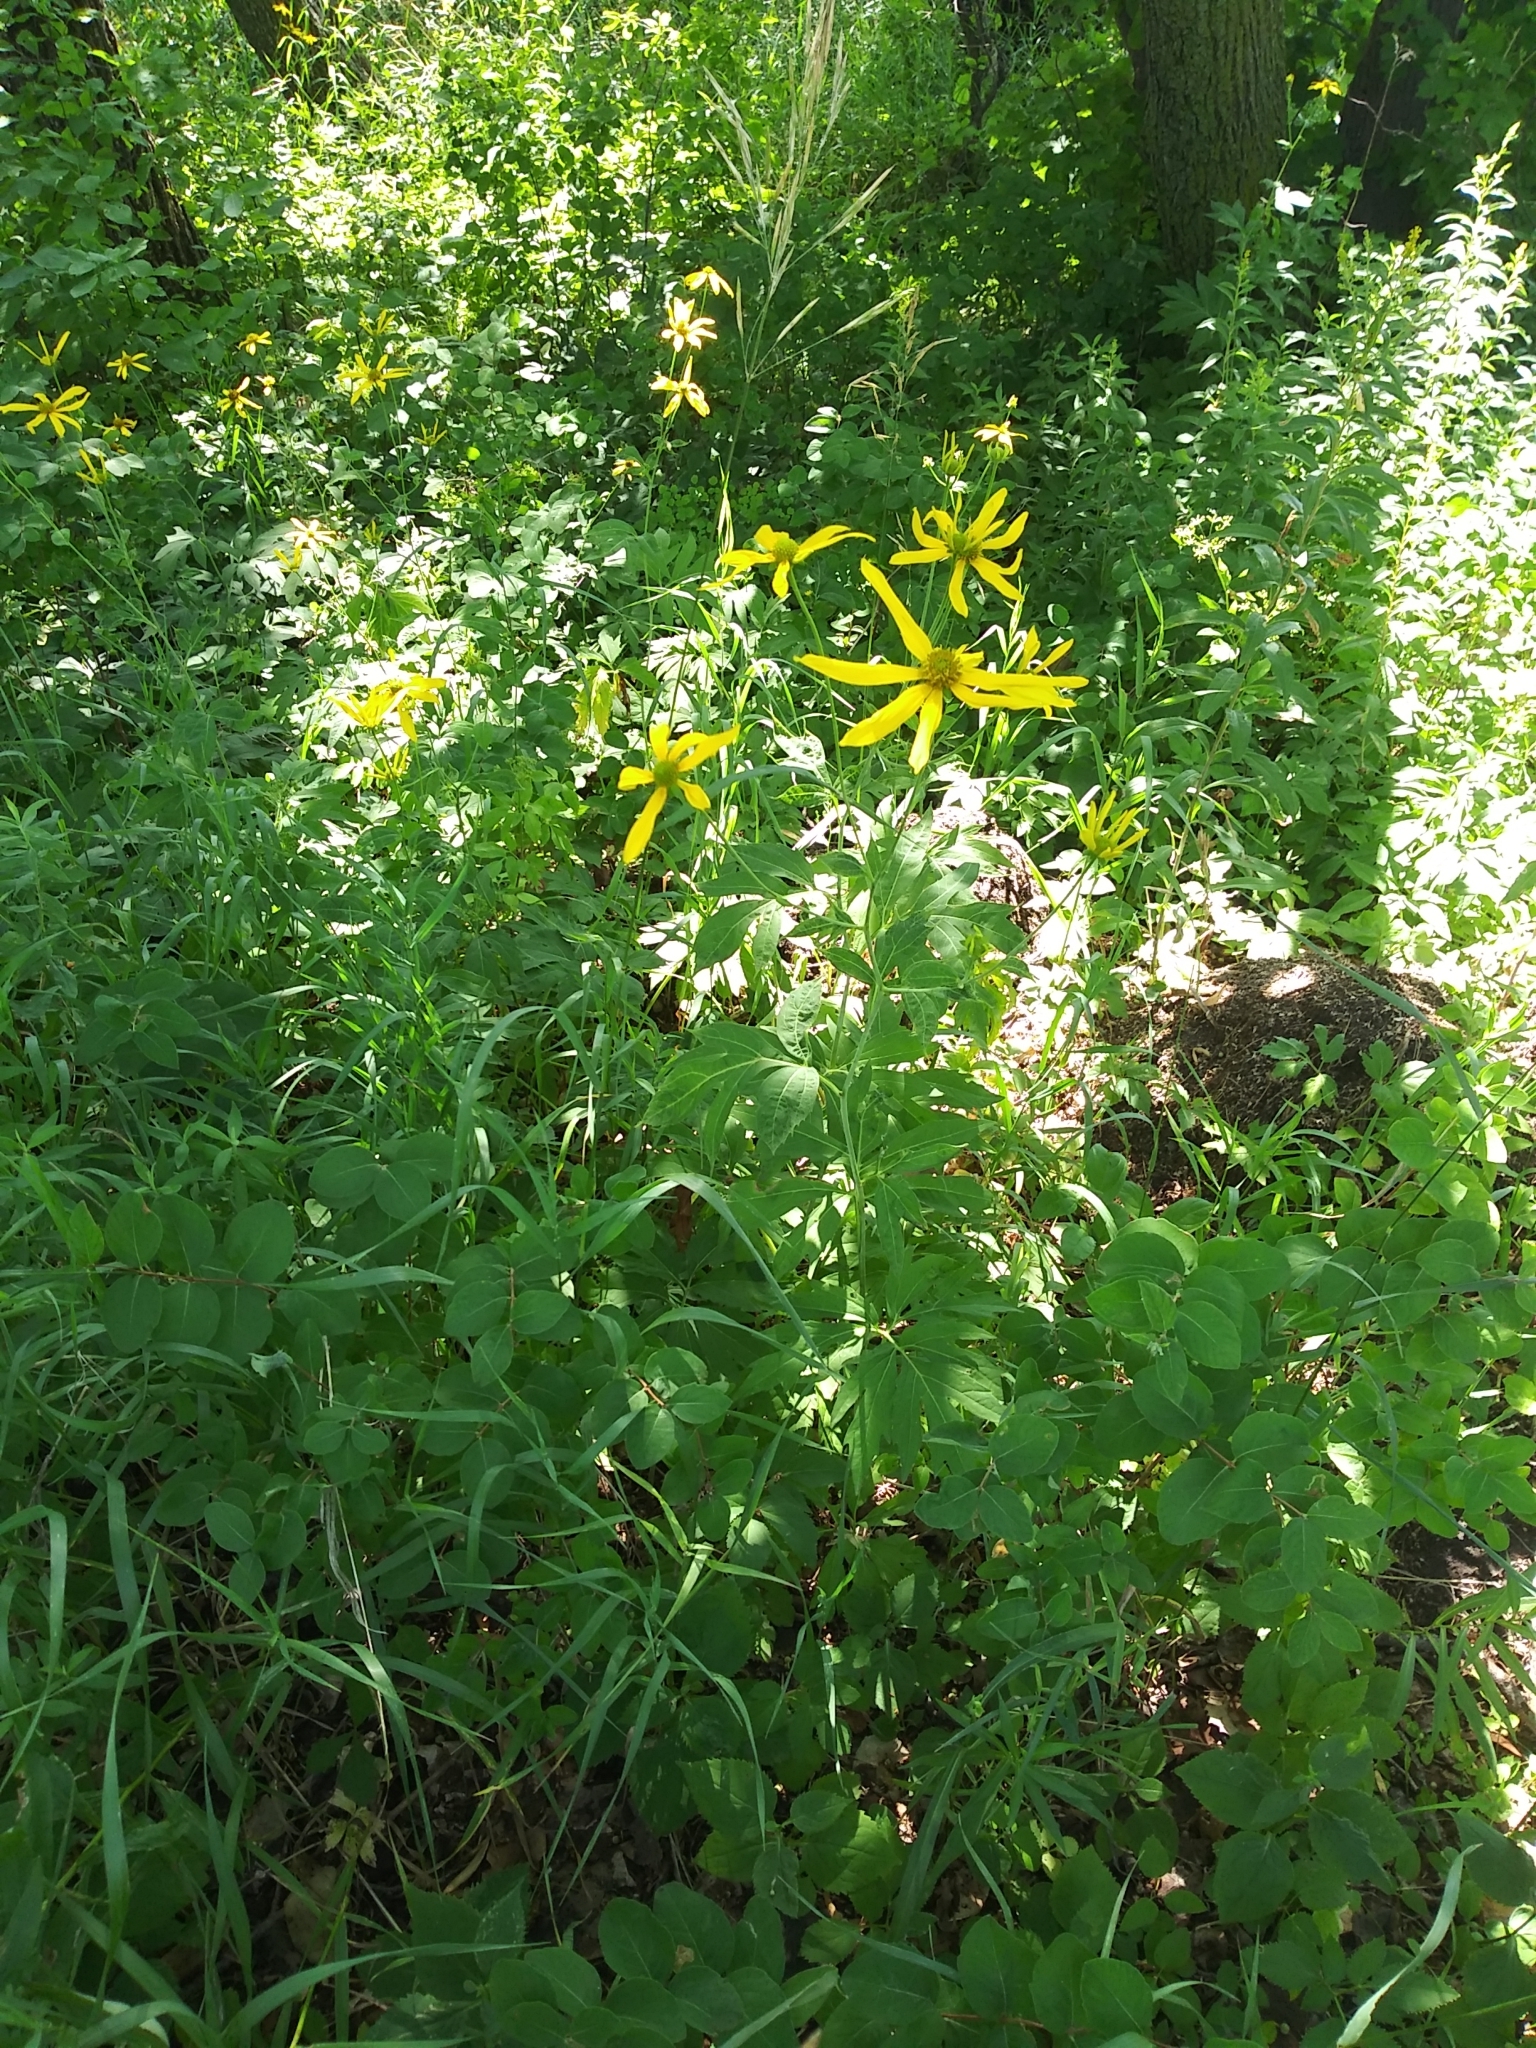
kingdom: Plantae
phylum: Tracheophyta
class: Magnoliopsida
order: Asterales
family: Asteraceae
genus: Rudbeckia
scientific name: Rudbeckia laciniata
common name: Coneflower
